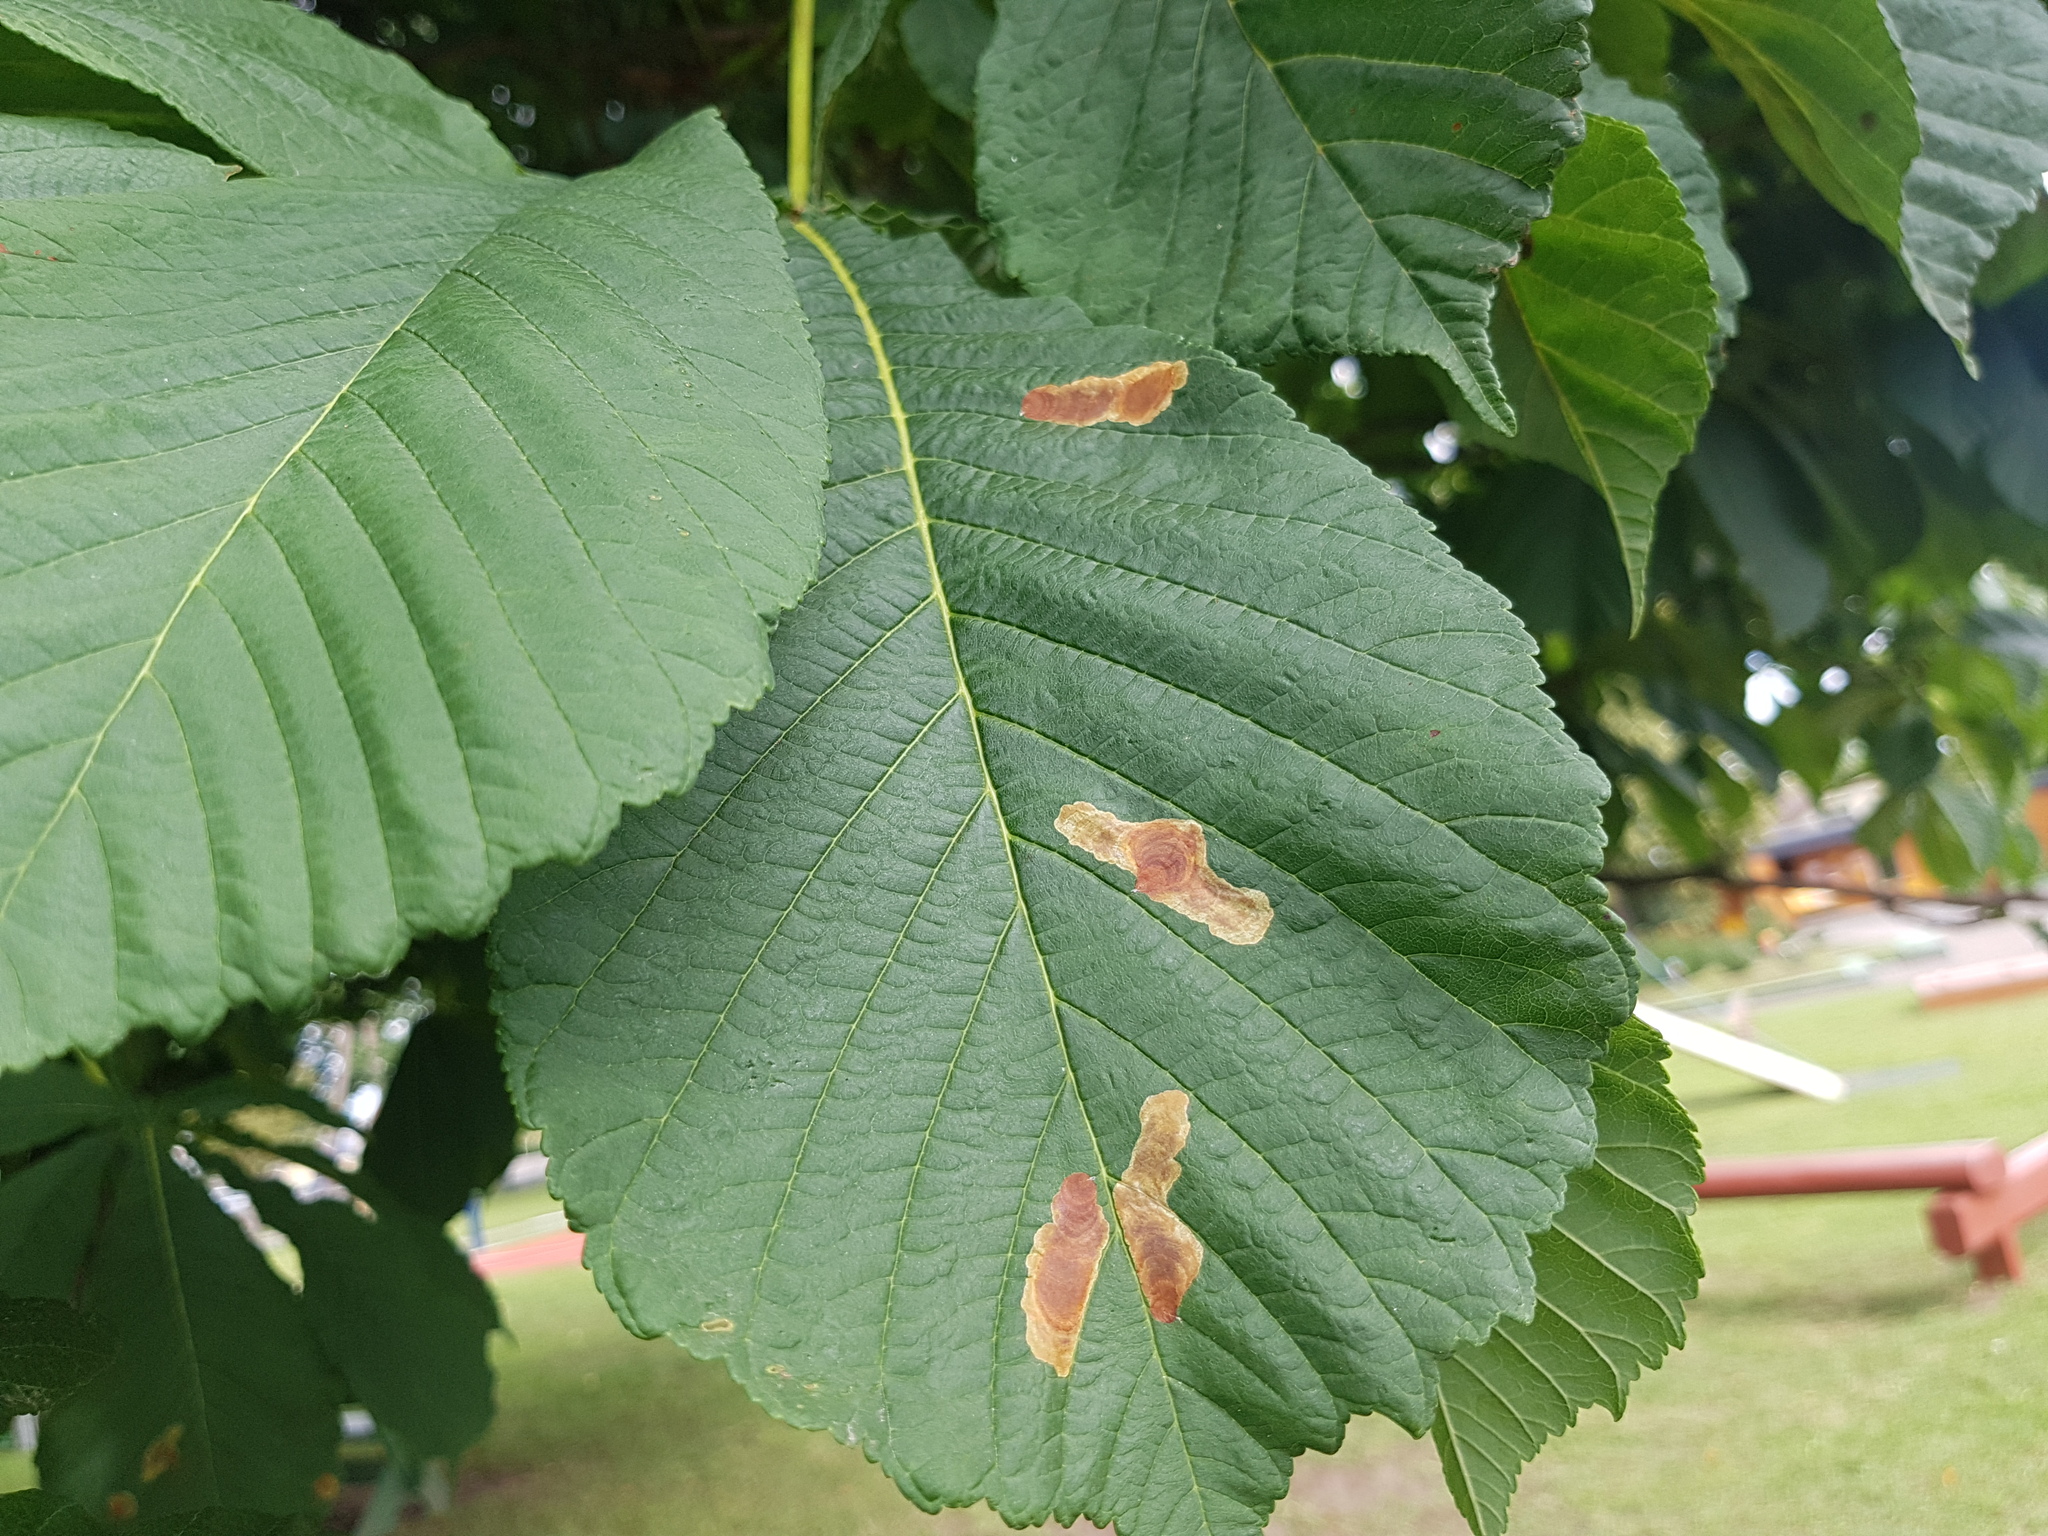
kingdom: Animalia
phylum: Arthropoda
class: Insecta
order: Lepidoptera
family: Gracillariidae
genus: Cameraria
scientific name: Cameraria ohridella
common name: Horse-chestnut leaf-miner
